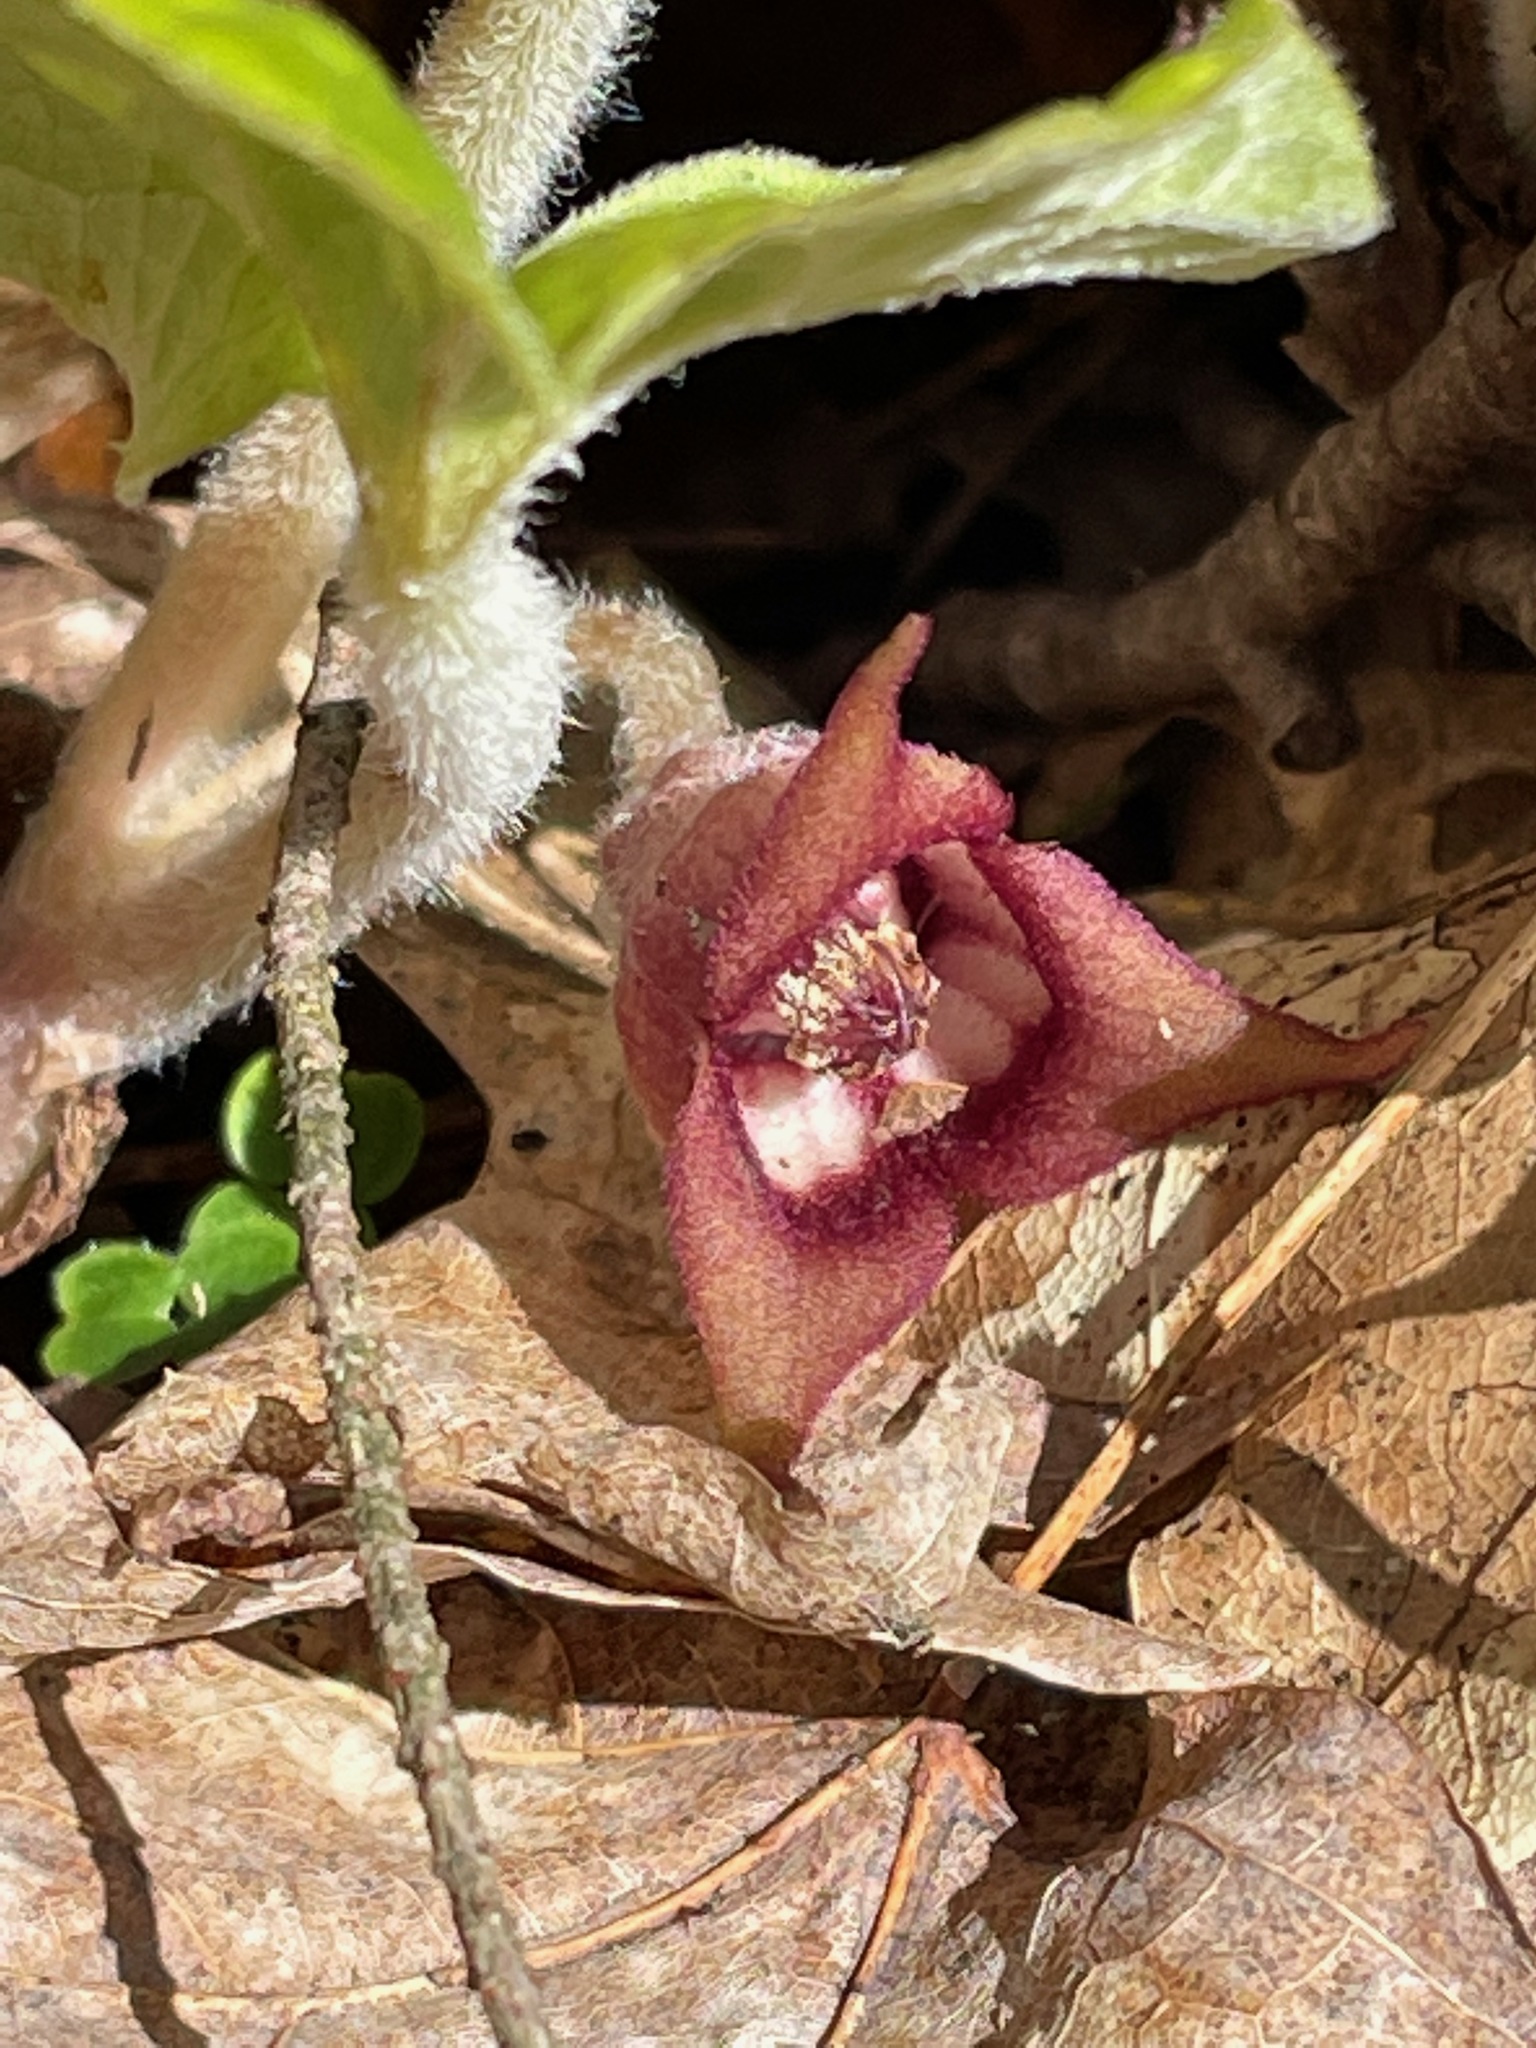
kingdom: Plantae
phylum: Tracheophyta
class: Magnoliopsida
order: Piperales
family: Aristolochiaceae
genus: Asarum
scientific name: Asarum canadense
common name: Wild ginger
